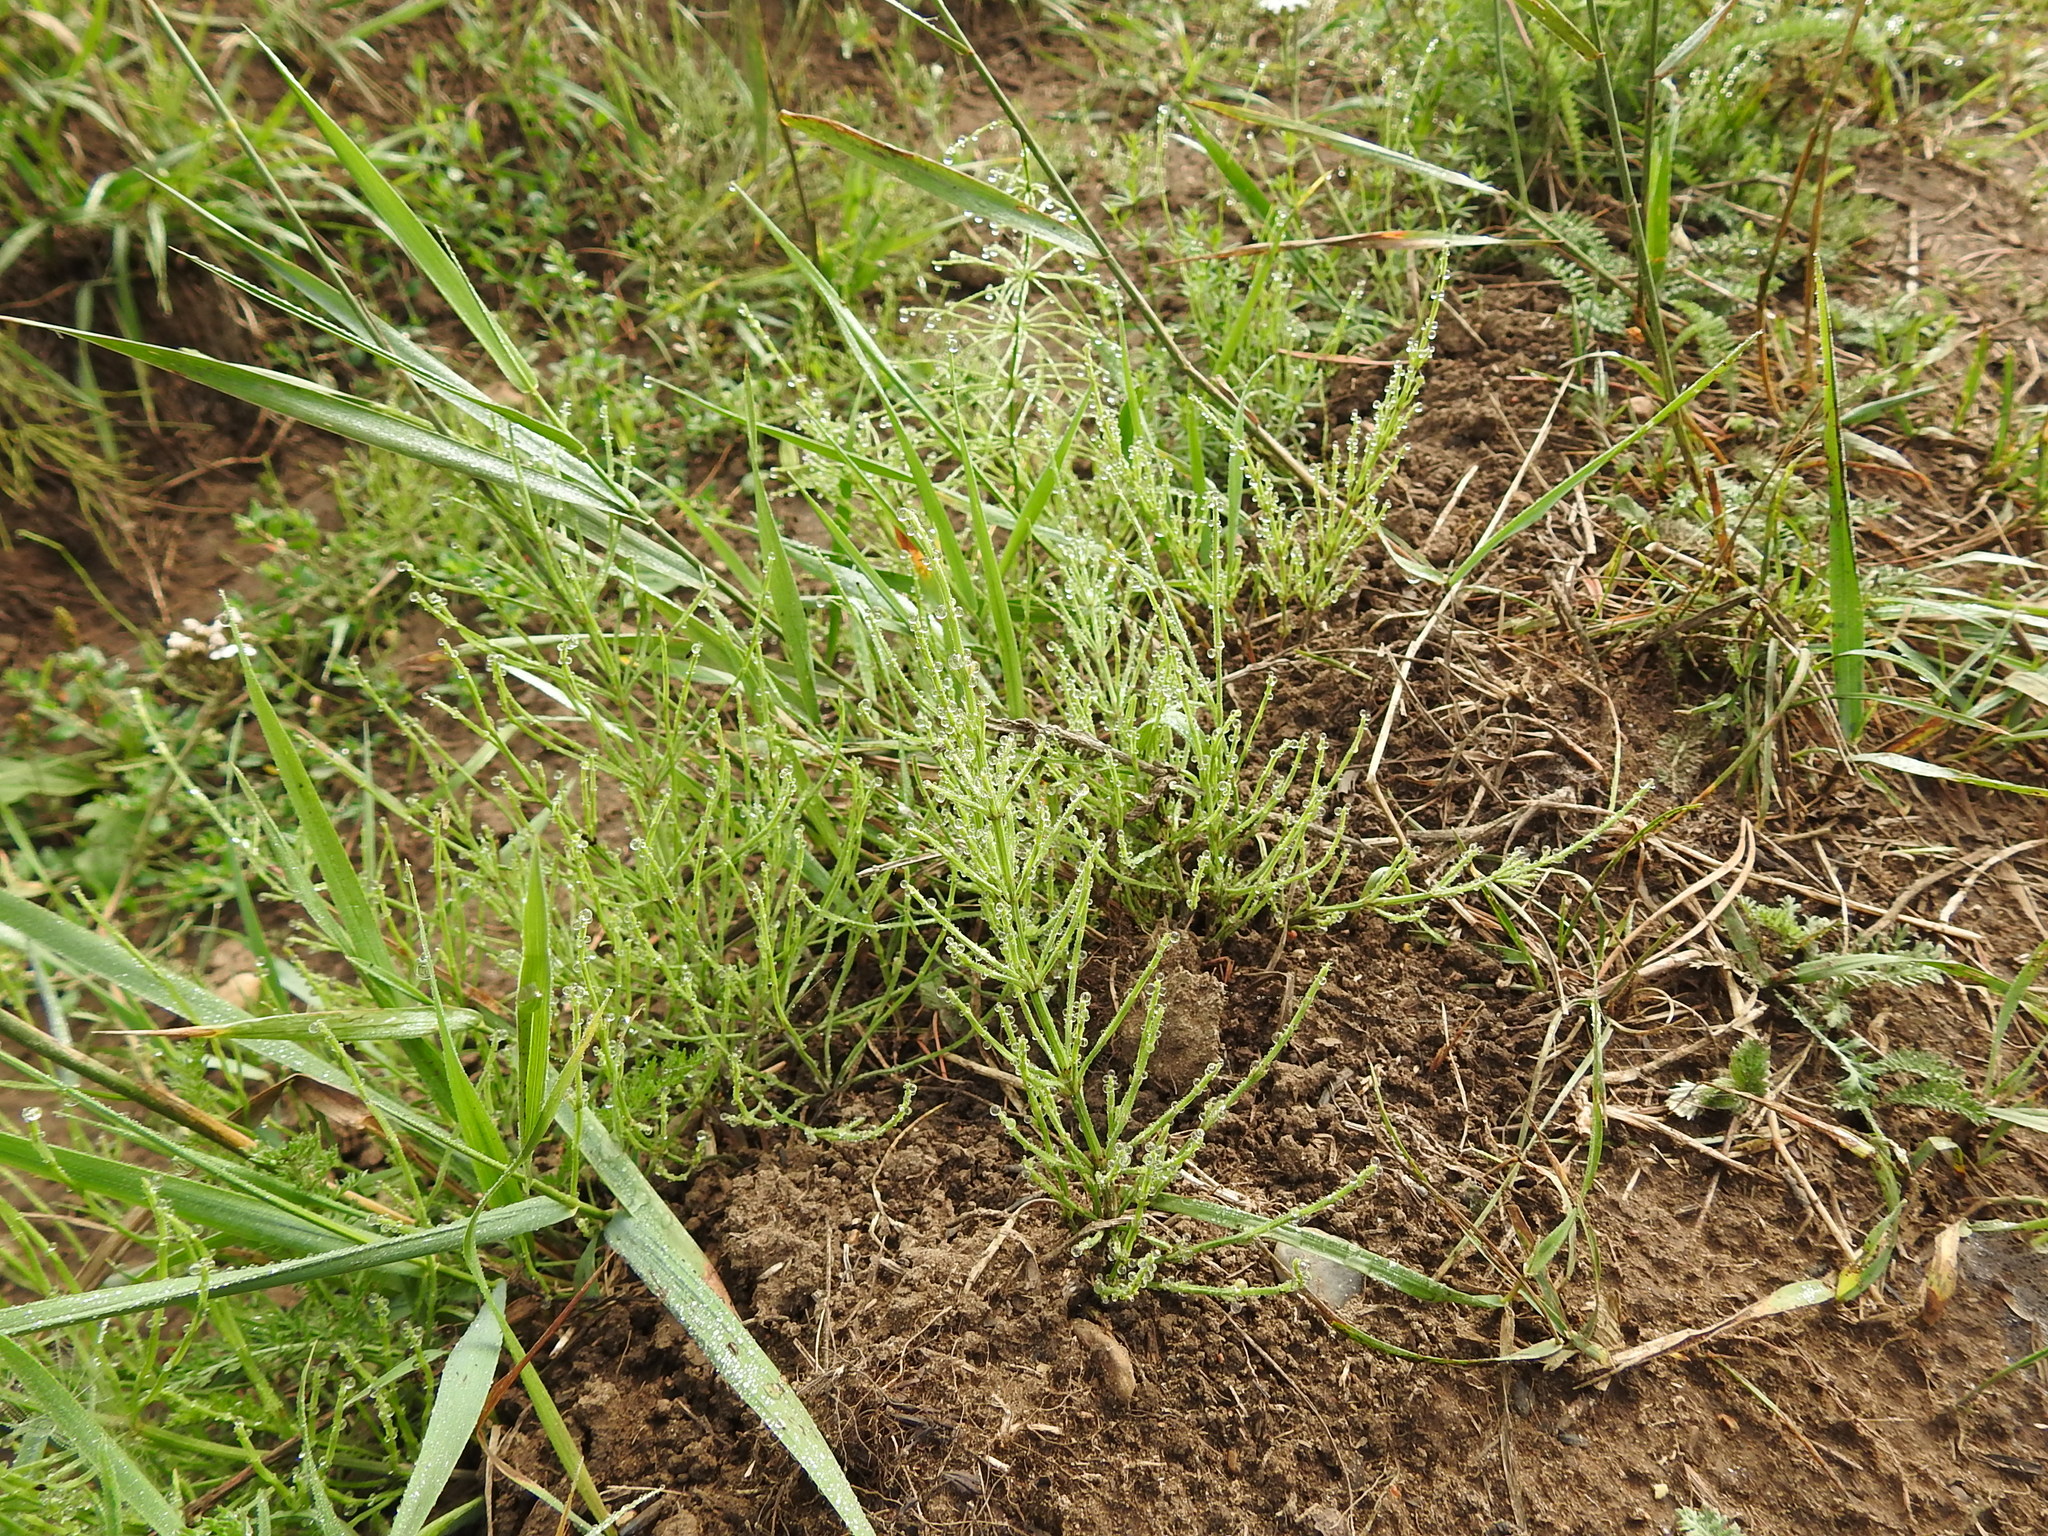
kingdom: Plantae
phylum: Tracheophyta
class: Polypodiopsida
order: Equisetales
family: Equisetaceae
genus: Equisetum
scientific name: Equisetum arvense
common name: Field horsetail
